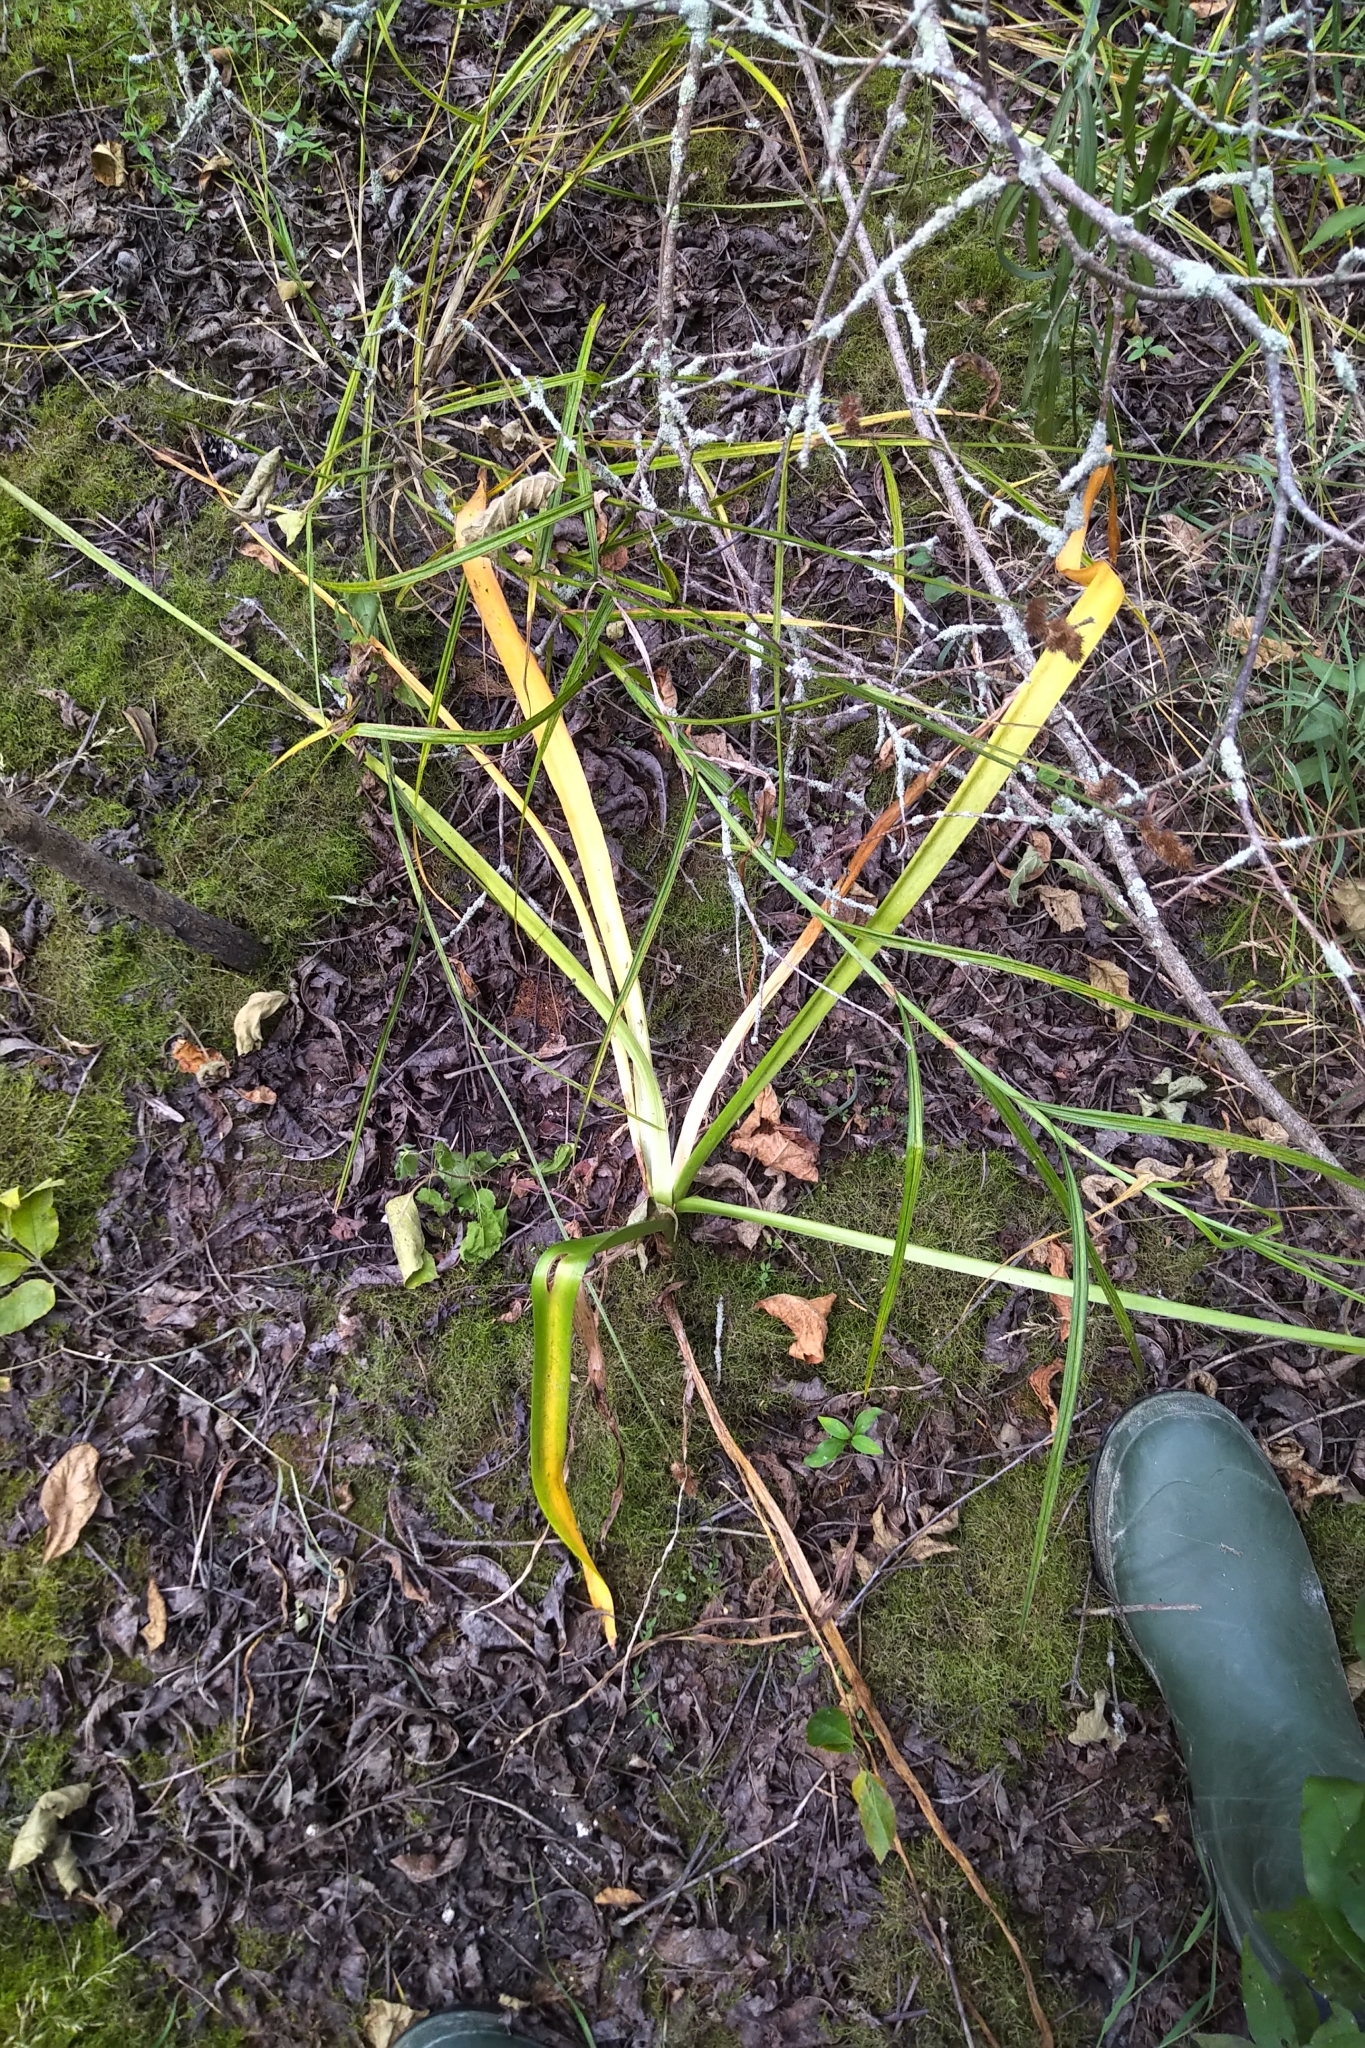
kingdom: Plantae
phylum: Tracheophyta
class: Liliopsida
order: Asparagales
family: Amaryllidaceae
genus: Leucojum
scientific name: Leucojum aestivum
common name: Summer snowflake
